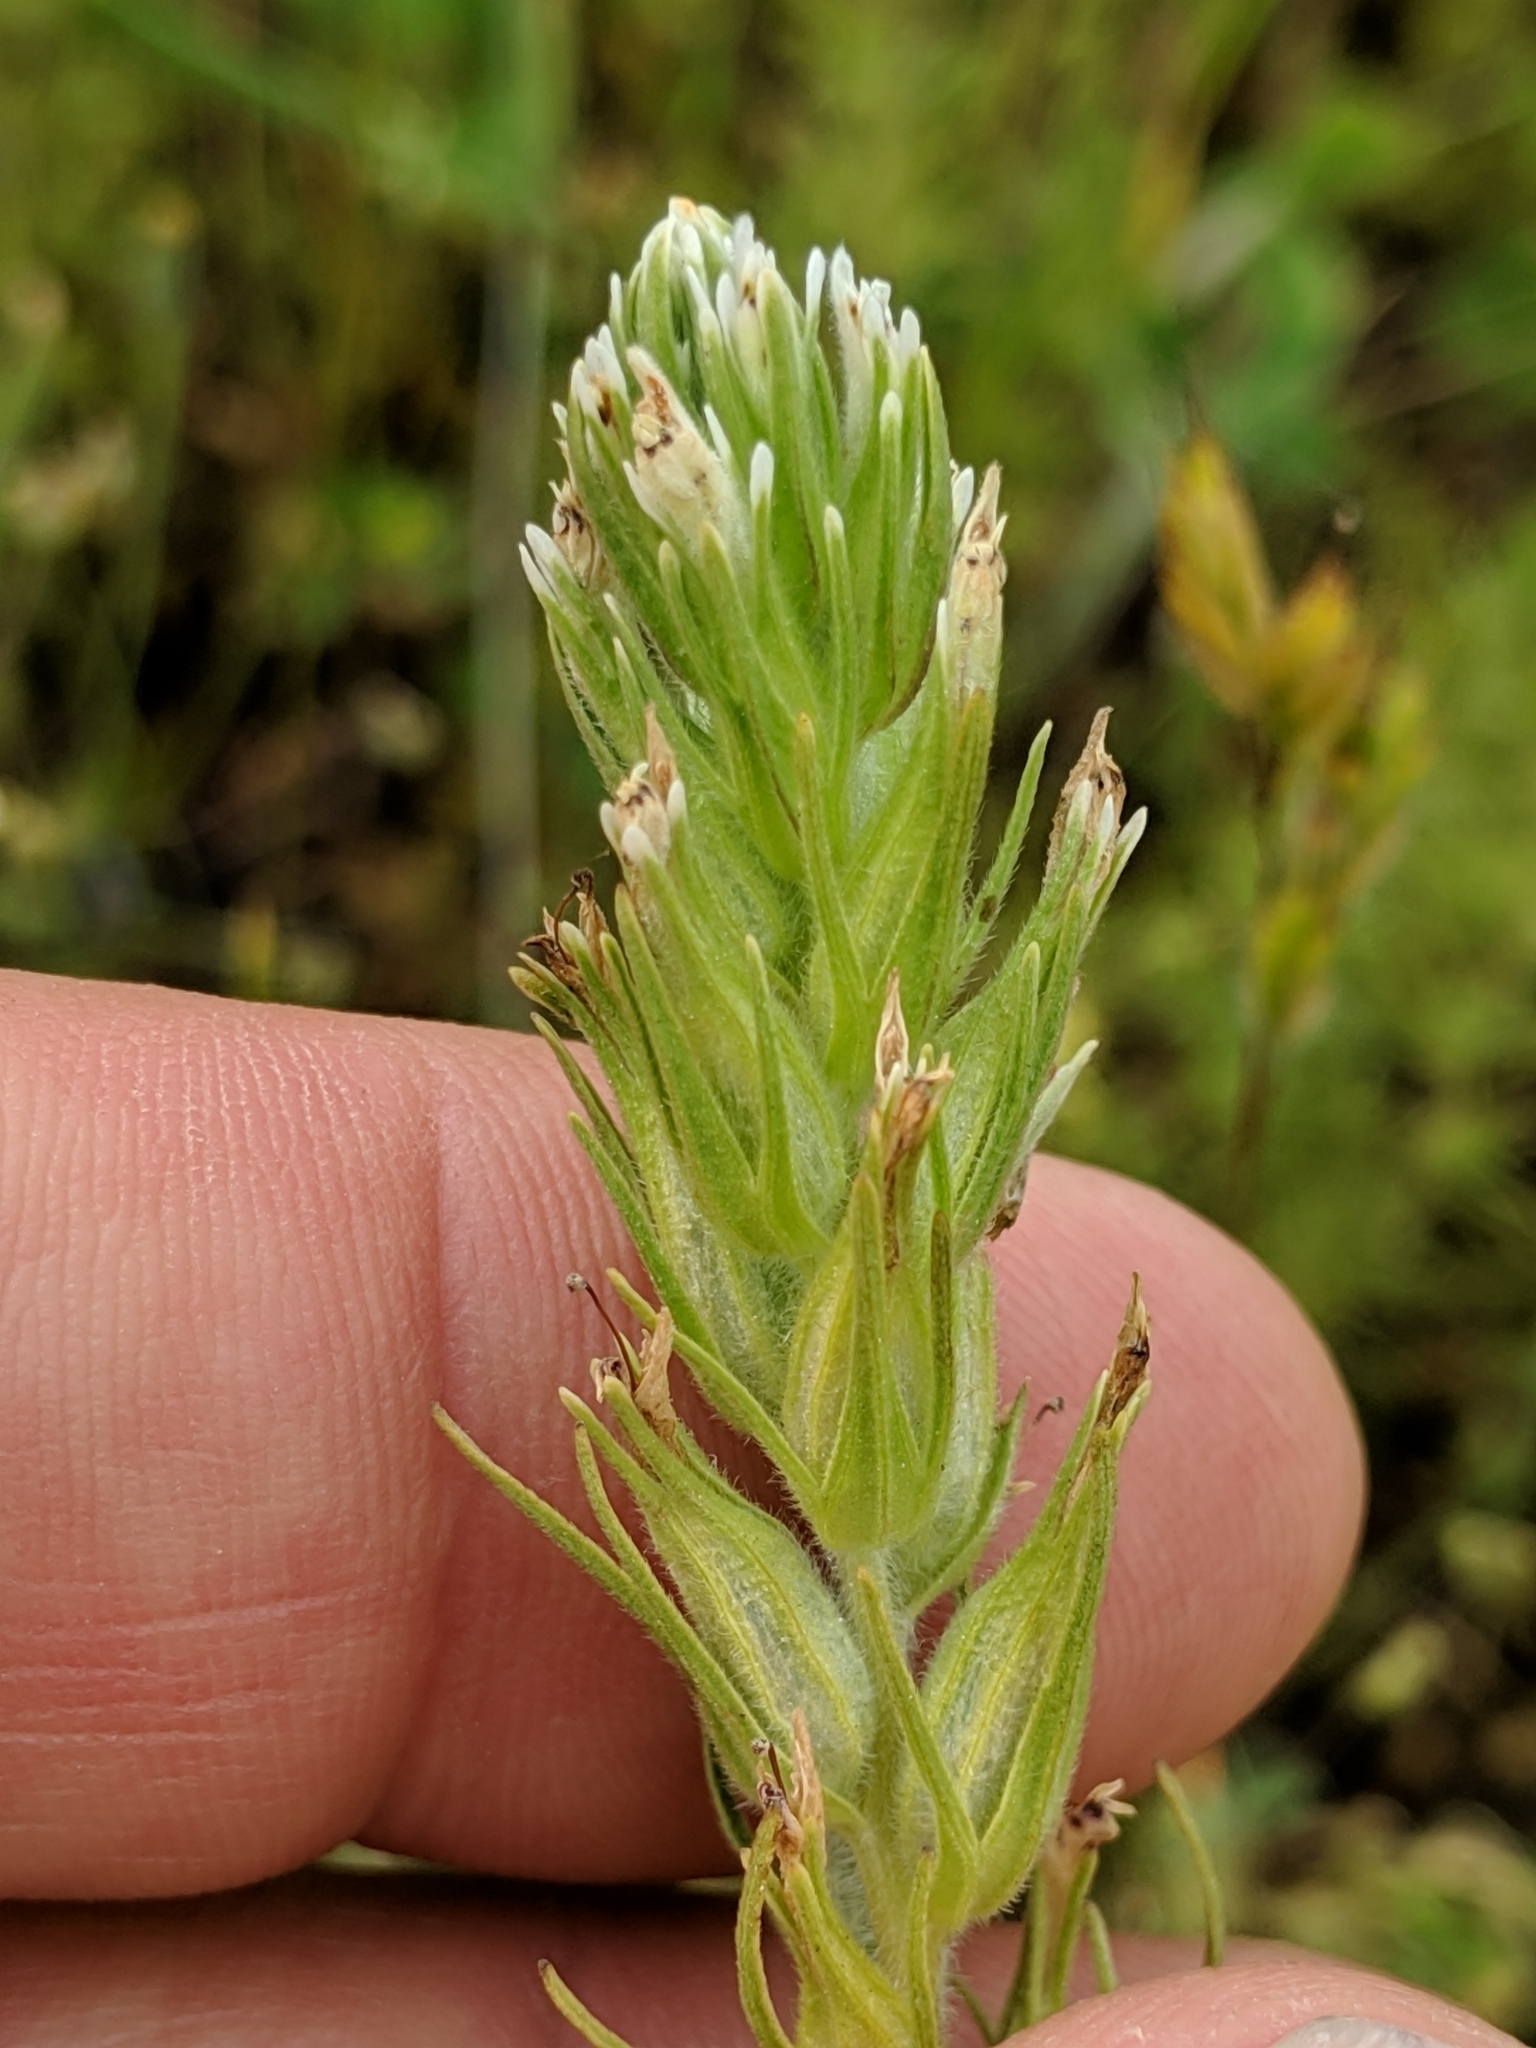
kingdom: Plantae
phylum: Tracheophyta
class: Magnoliopsida
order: Lamiales
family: Orobanchaceae
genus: Castilleja
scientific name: Castilleja attenuata
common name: Valley tassels
